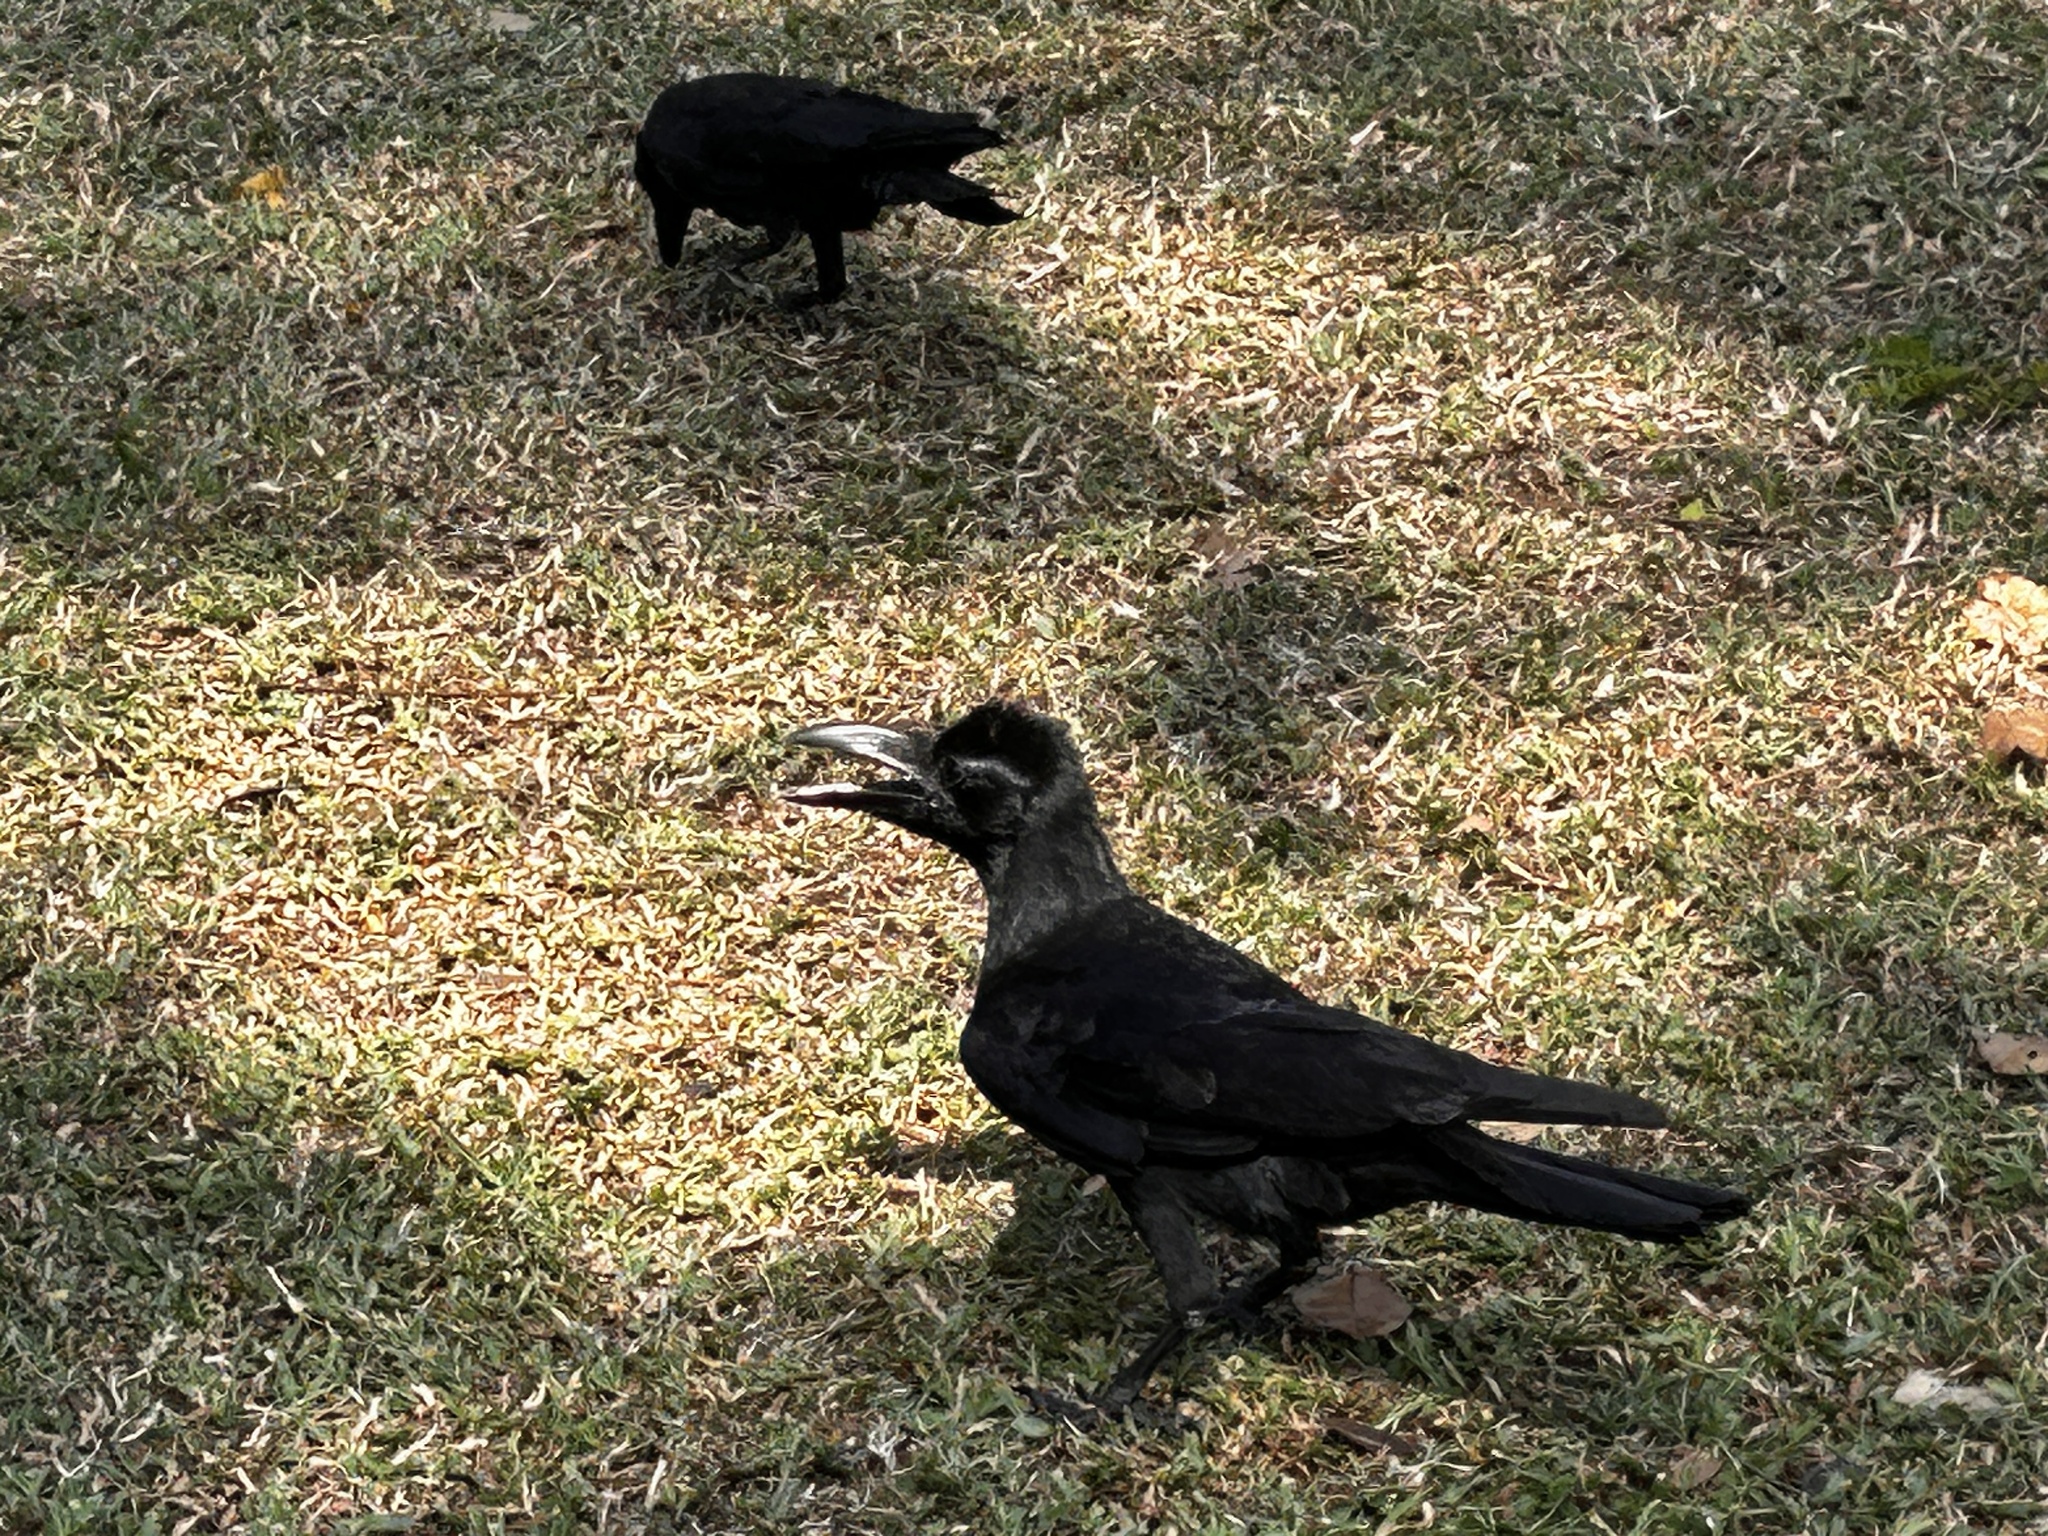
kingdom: Animalia
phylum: Chordata
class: Aves
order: Passeriformes
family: Corvidae
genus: Corvus
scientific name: Corvus macrorhynchos
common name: Large-billed crow
